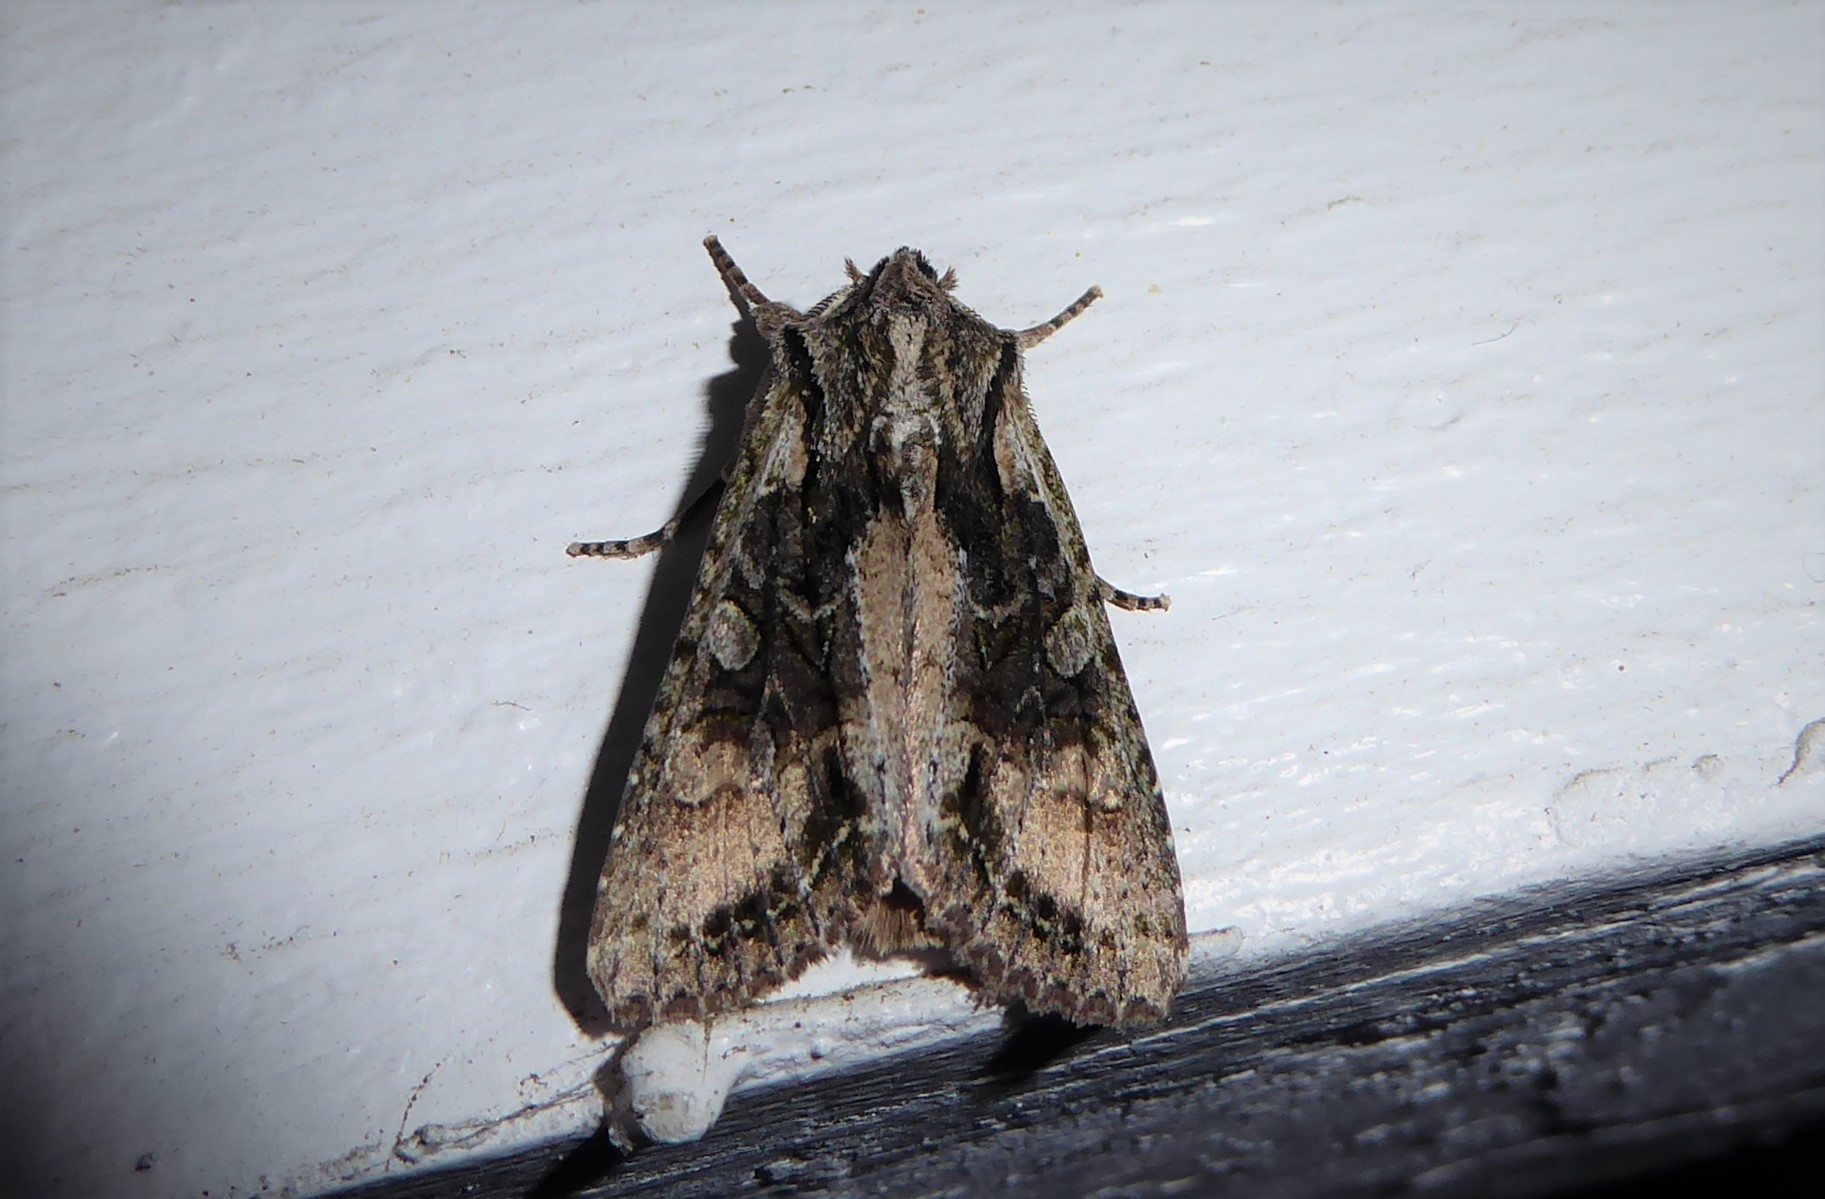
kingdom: Animalia
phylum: Arthropoda
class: Insecta
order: Lepidoptera
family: Noctuidae
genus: Ichneutica
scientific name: Ichneutica mutans
